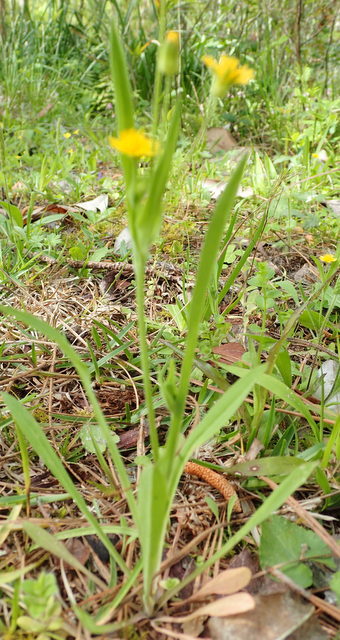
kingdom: Plantae
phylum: Tracheophyta
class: Magnoliopsida
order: Asterales
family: Asteraceae
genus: Krigia
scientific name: Krigia cespitosa
